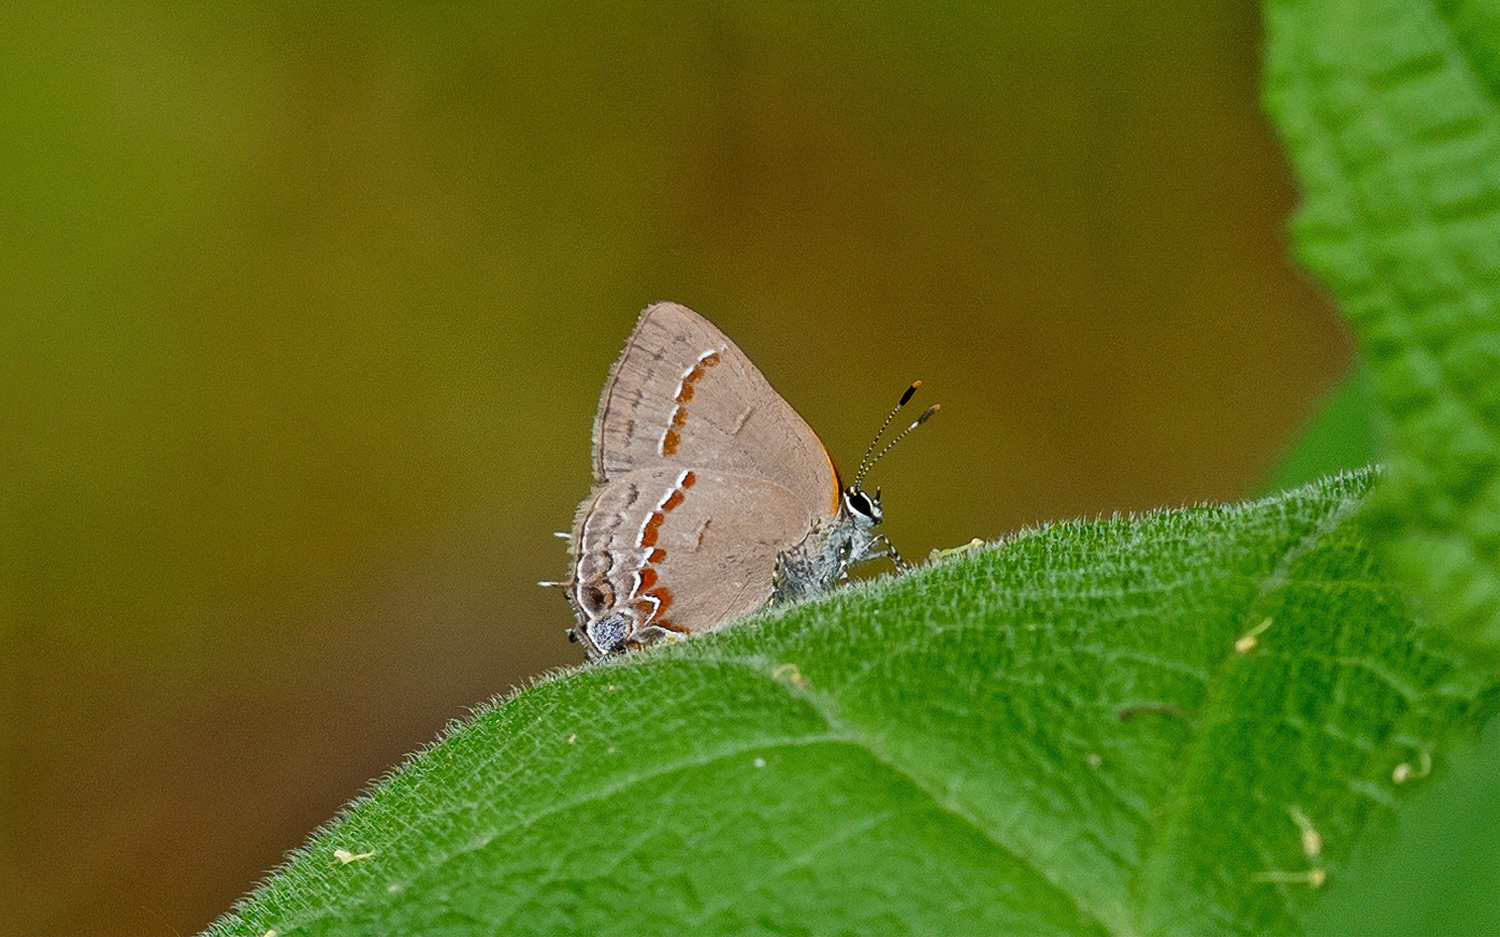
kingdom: Animalia
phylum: Arthropoda
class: Insecta
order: Lepidoptera
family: Lycaenidae
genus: Calycopis
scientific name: Calycopis cecrops
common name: Red-banded hairstreak
